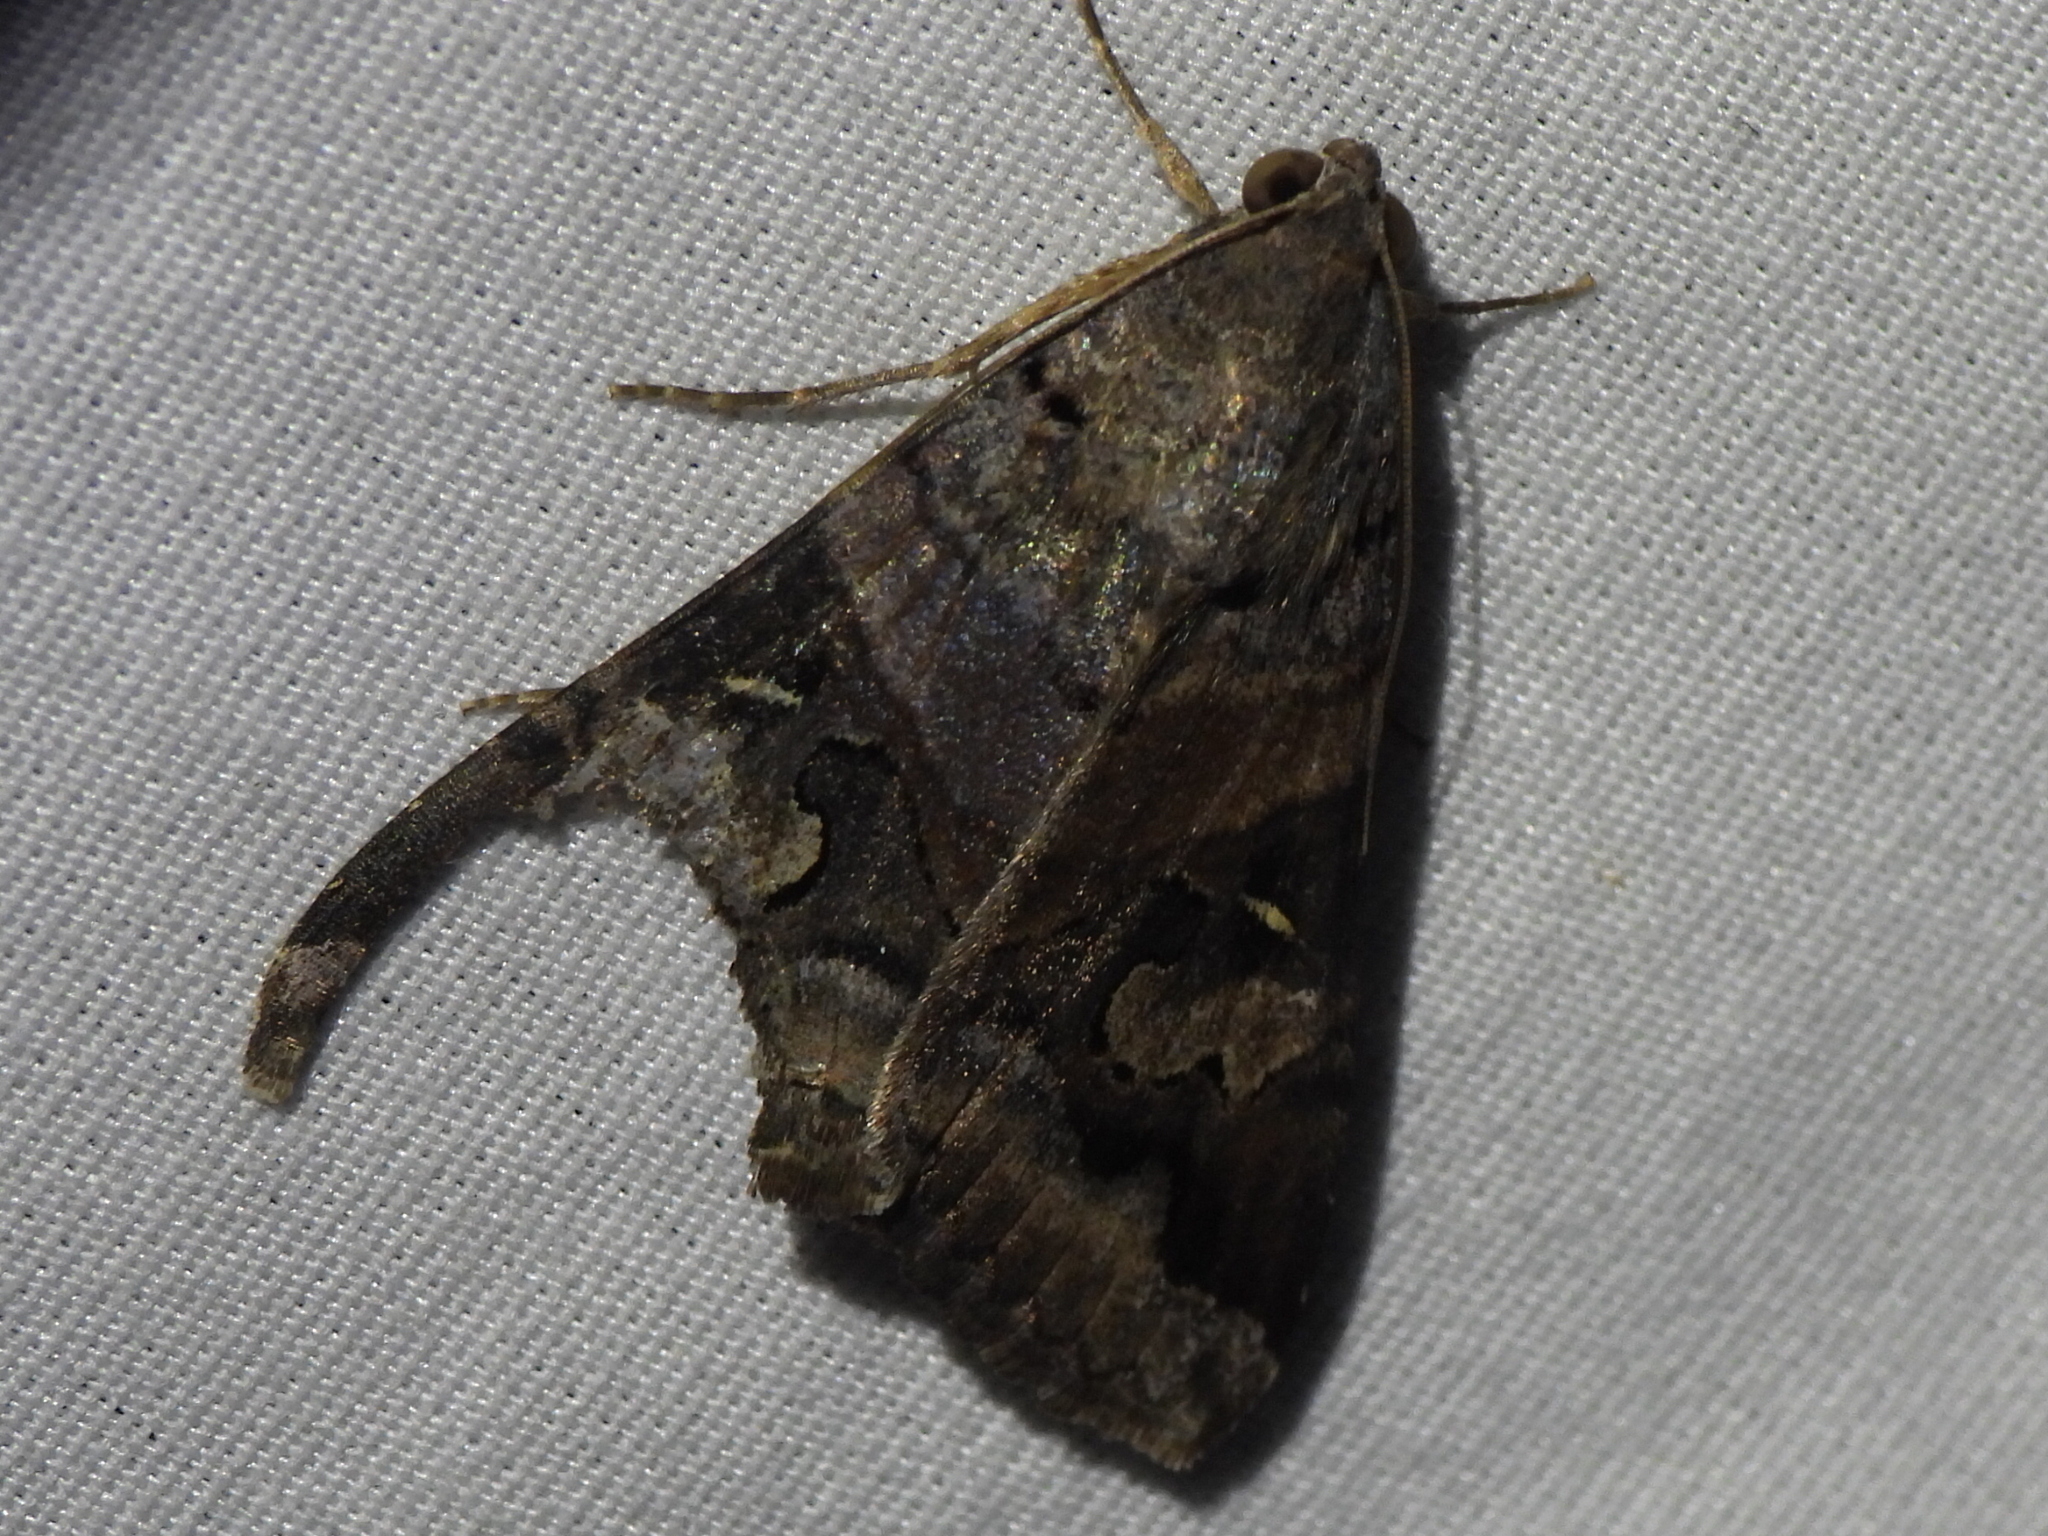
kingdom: Animalia
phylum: Arthropoda
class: Insecta
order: Lepidoptera
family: Erebidae
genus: Melipotis
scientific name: Melipotis indomita
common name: Moth
